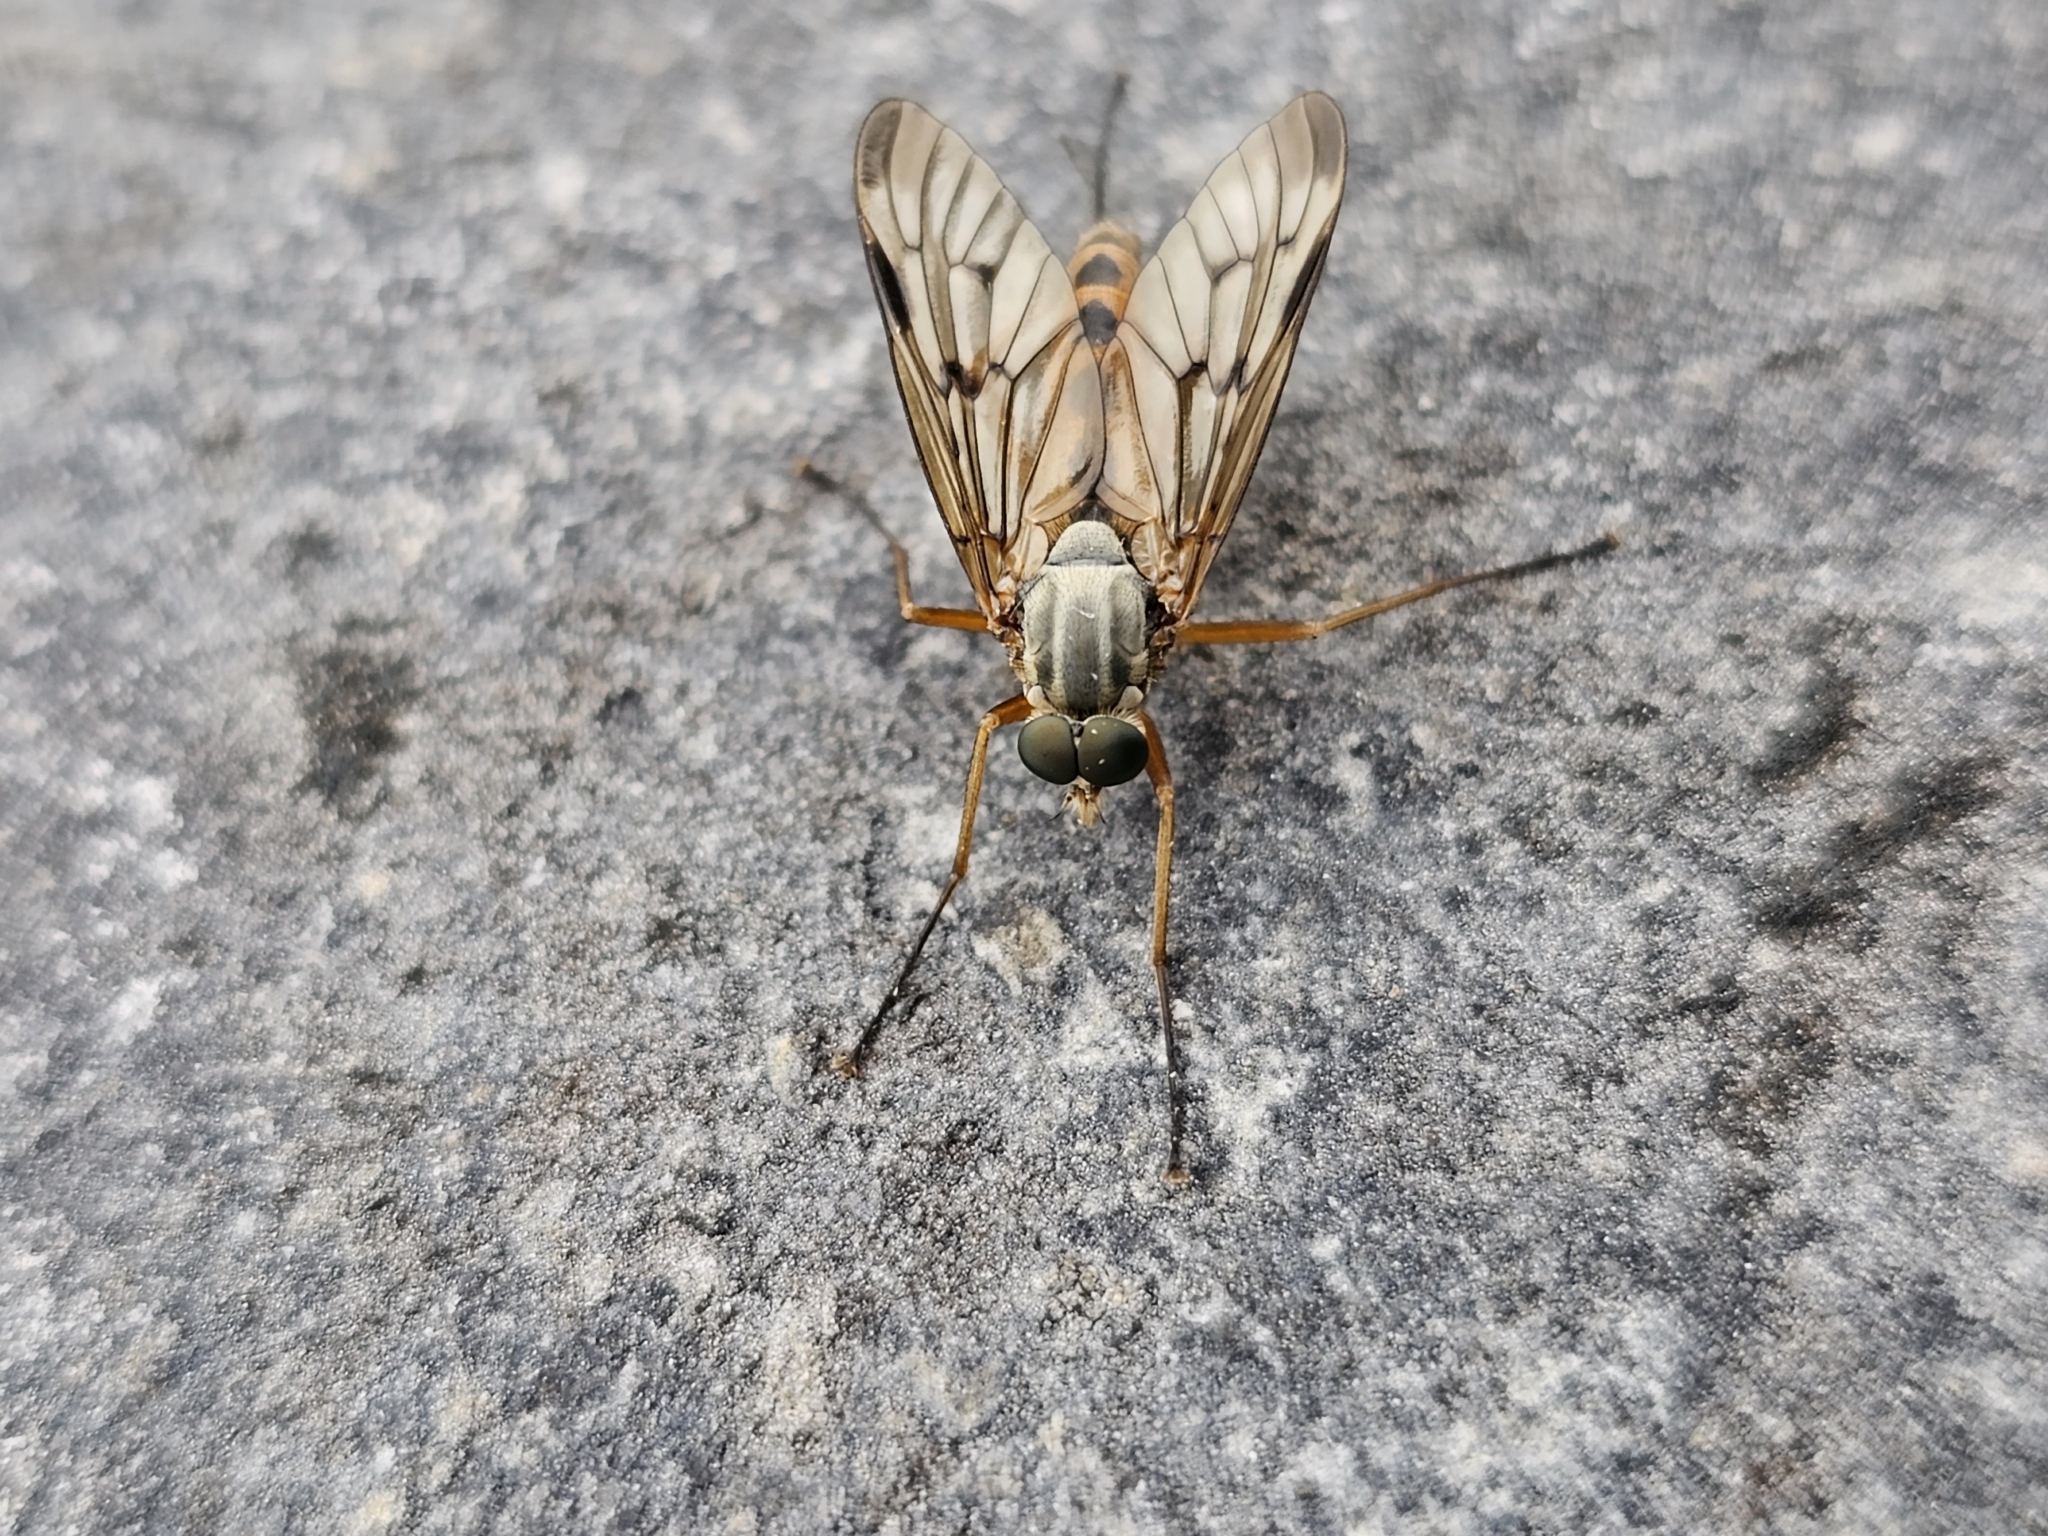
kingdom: Animalia
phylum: Arthropoda
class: Insecta
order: Diptera
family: Rhagionidae
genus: Rhagio
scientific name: Rhagio scolopacea
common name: Downlooker snipefly
